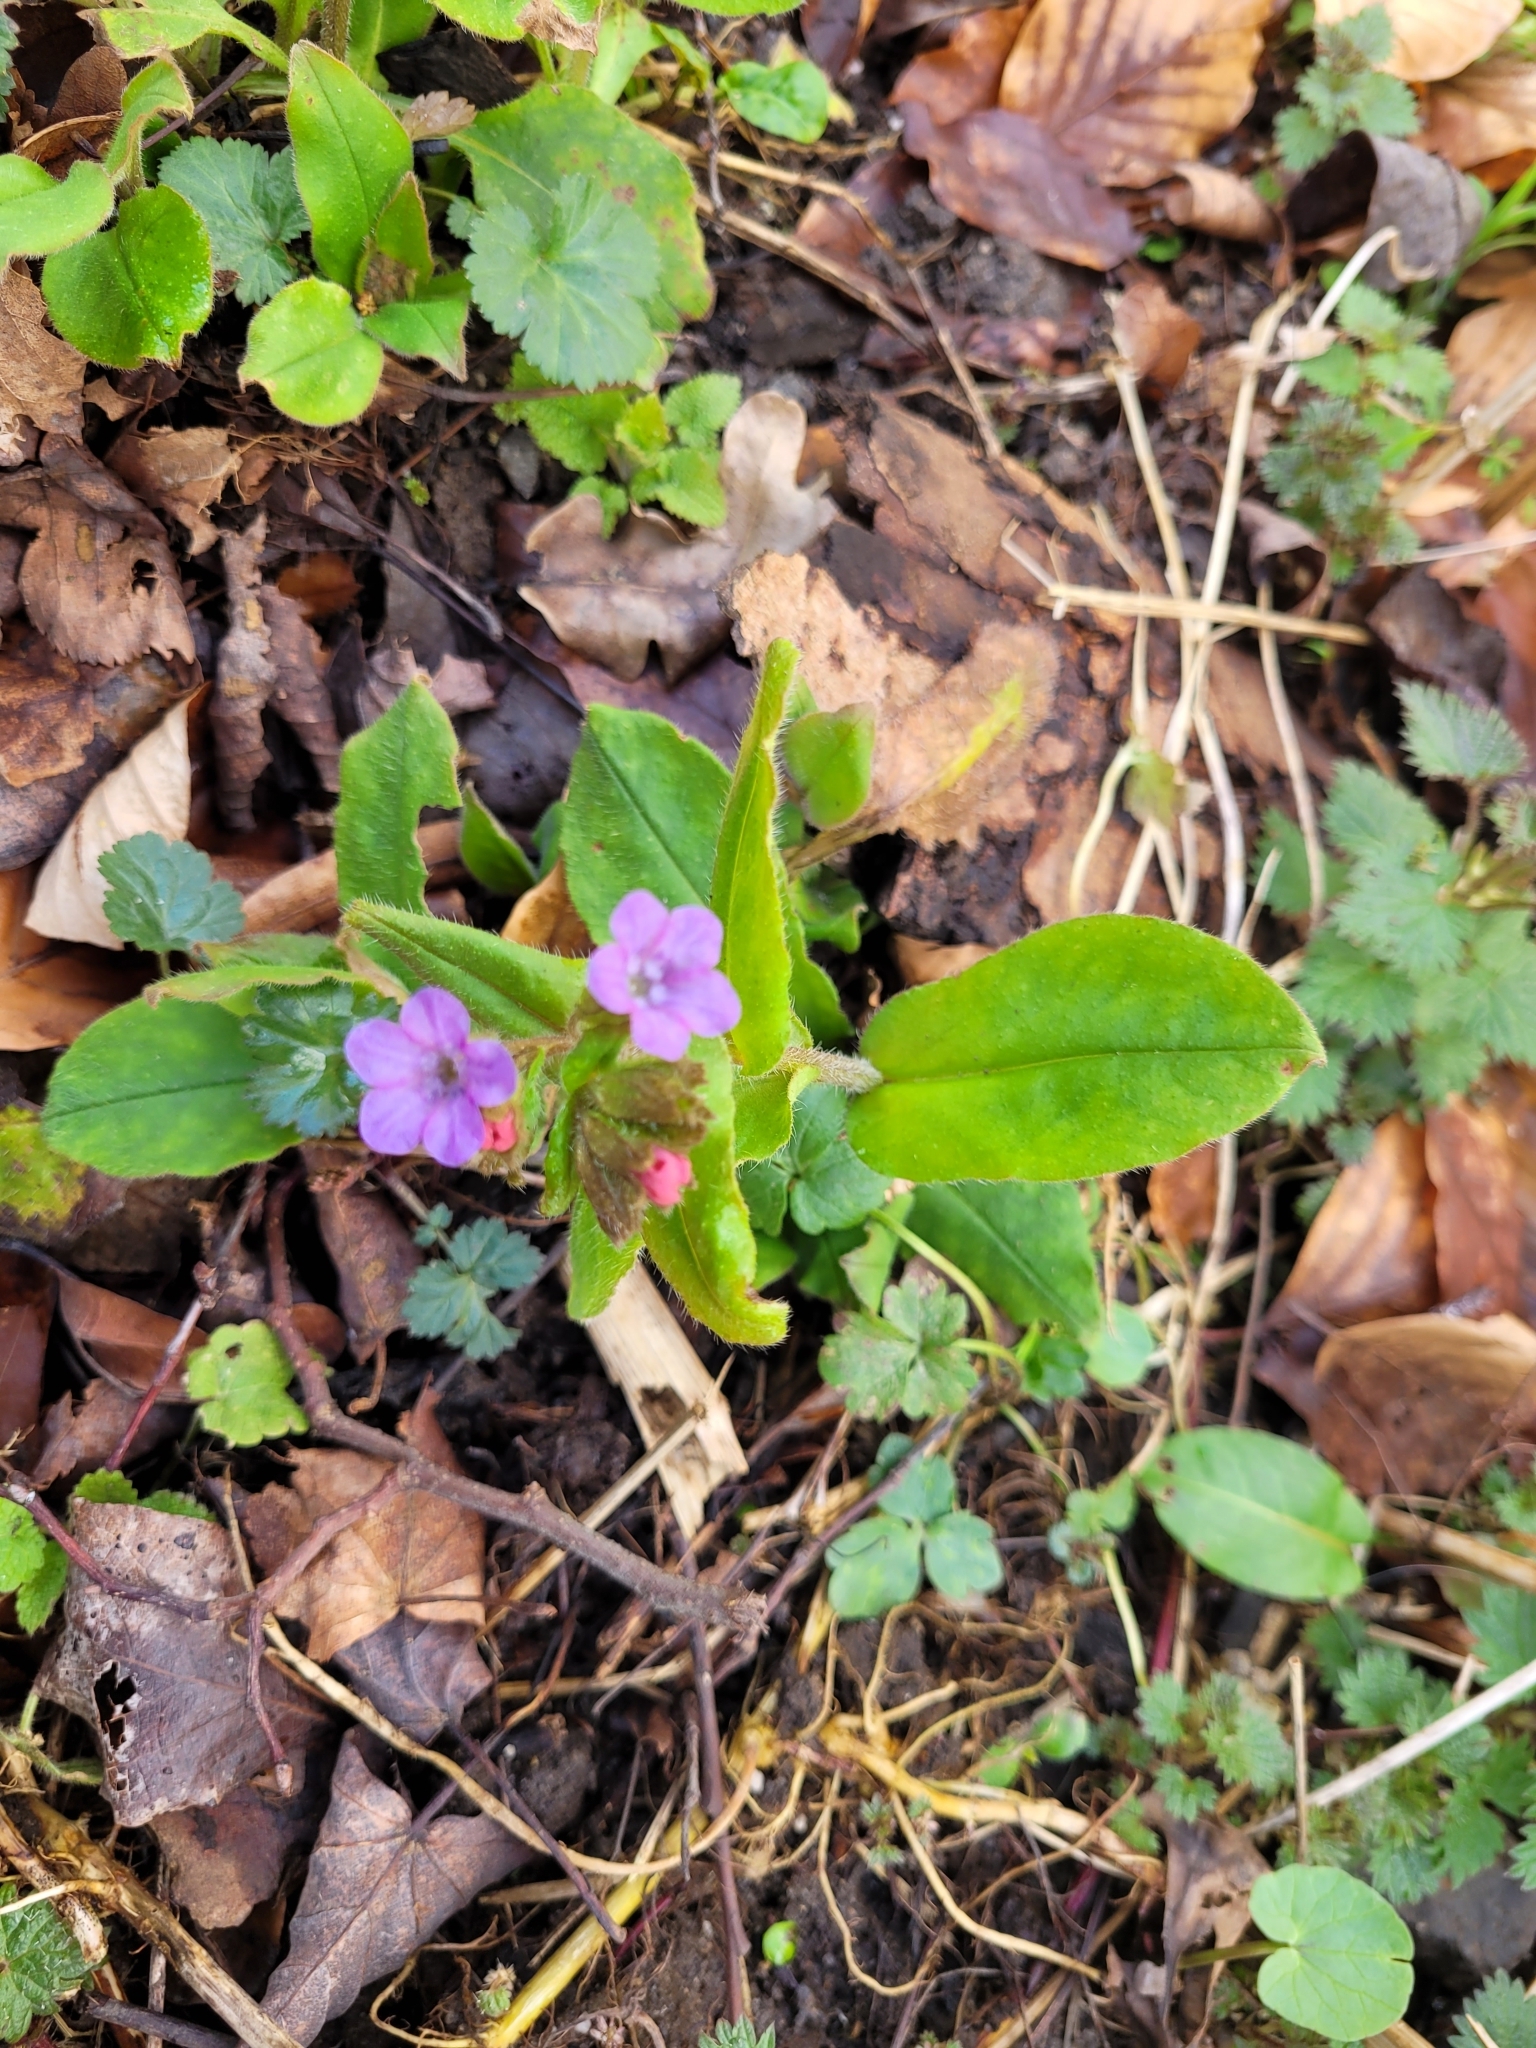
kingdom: Plantae
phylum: Tracheophyta
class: Magnoliopsida
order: Boraginales
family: Boraginaceae
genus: Pulmonaria
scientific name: Pulmonaria obscura
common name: Suffolk lungwort
